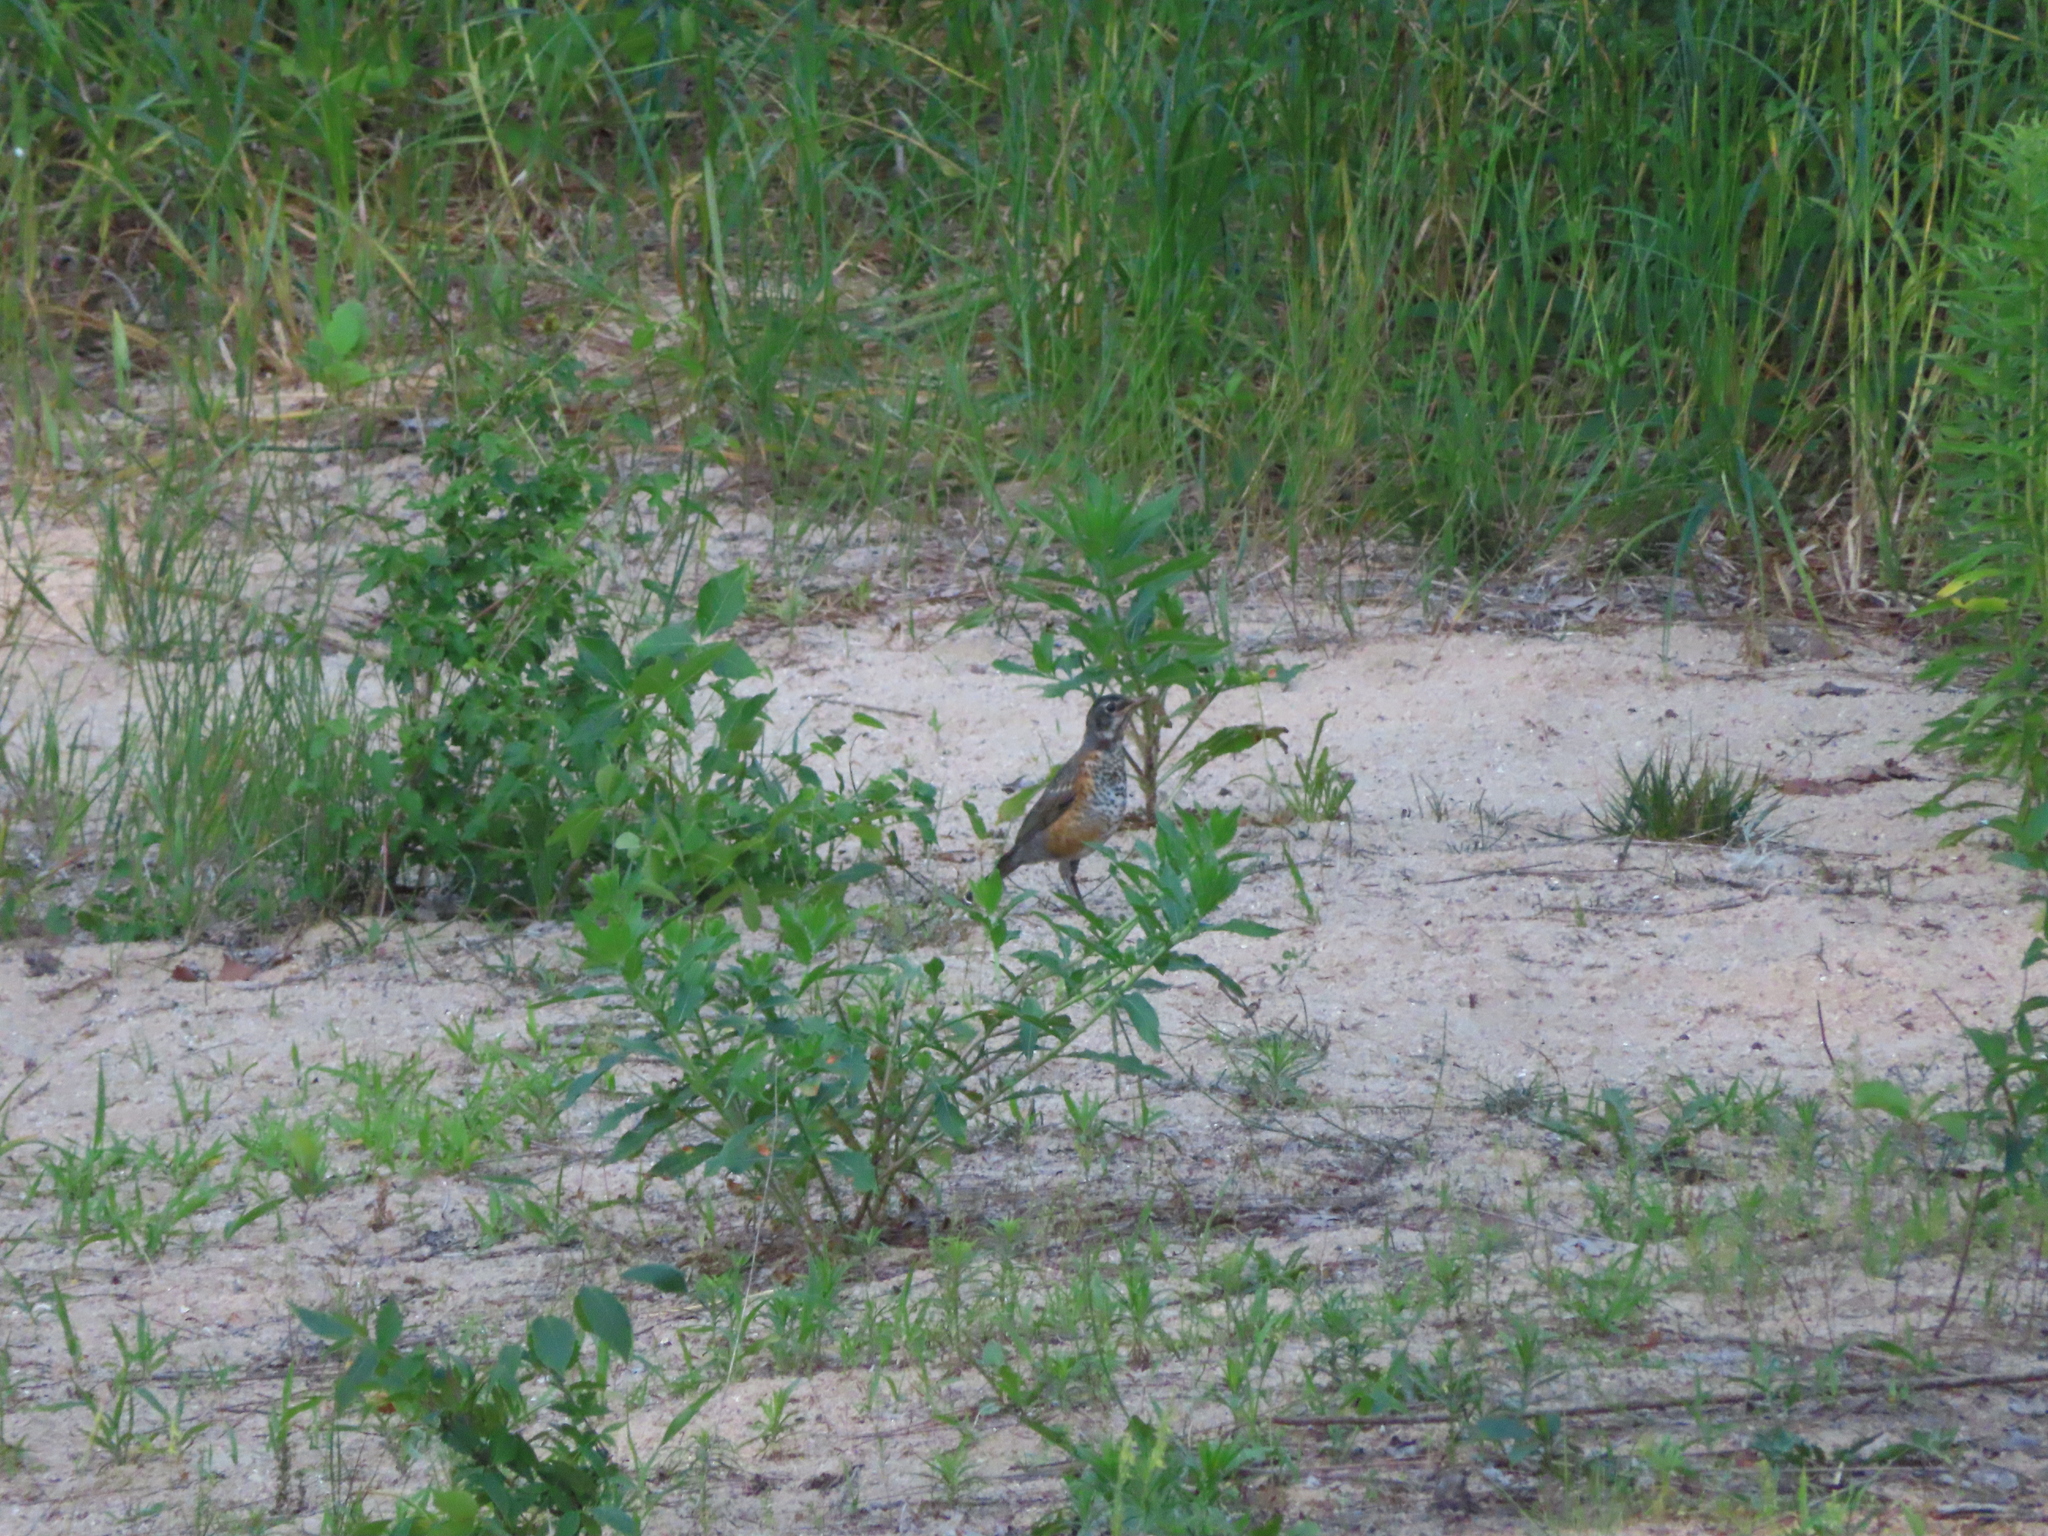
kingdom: Animalia
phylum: Chordata
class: Aves
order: Passeriformes
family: Turdidae
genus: Turdus
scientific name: Turdus migratorius
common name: American robin
